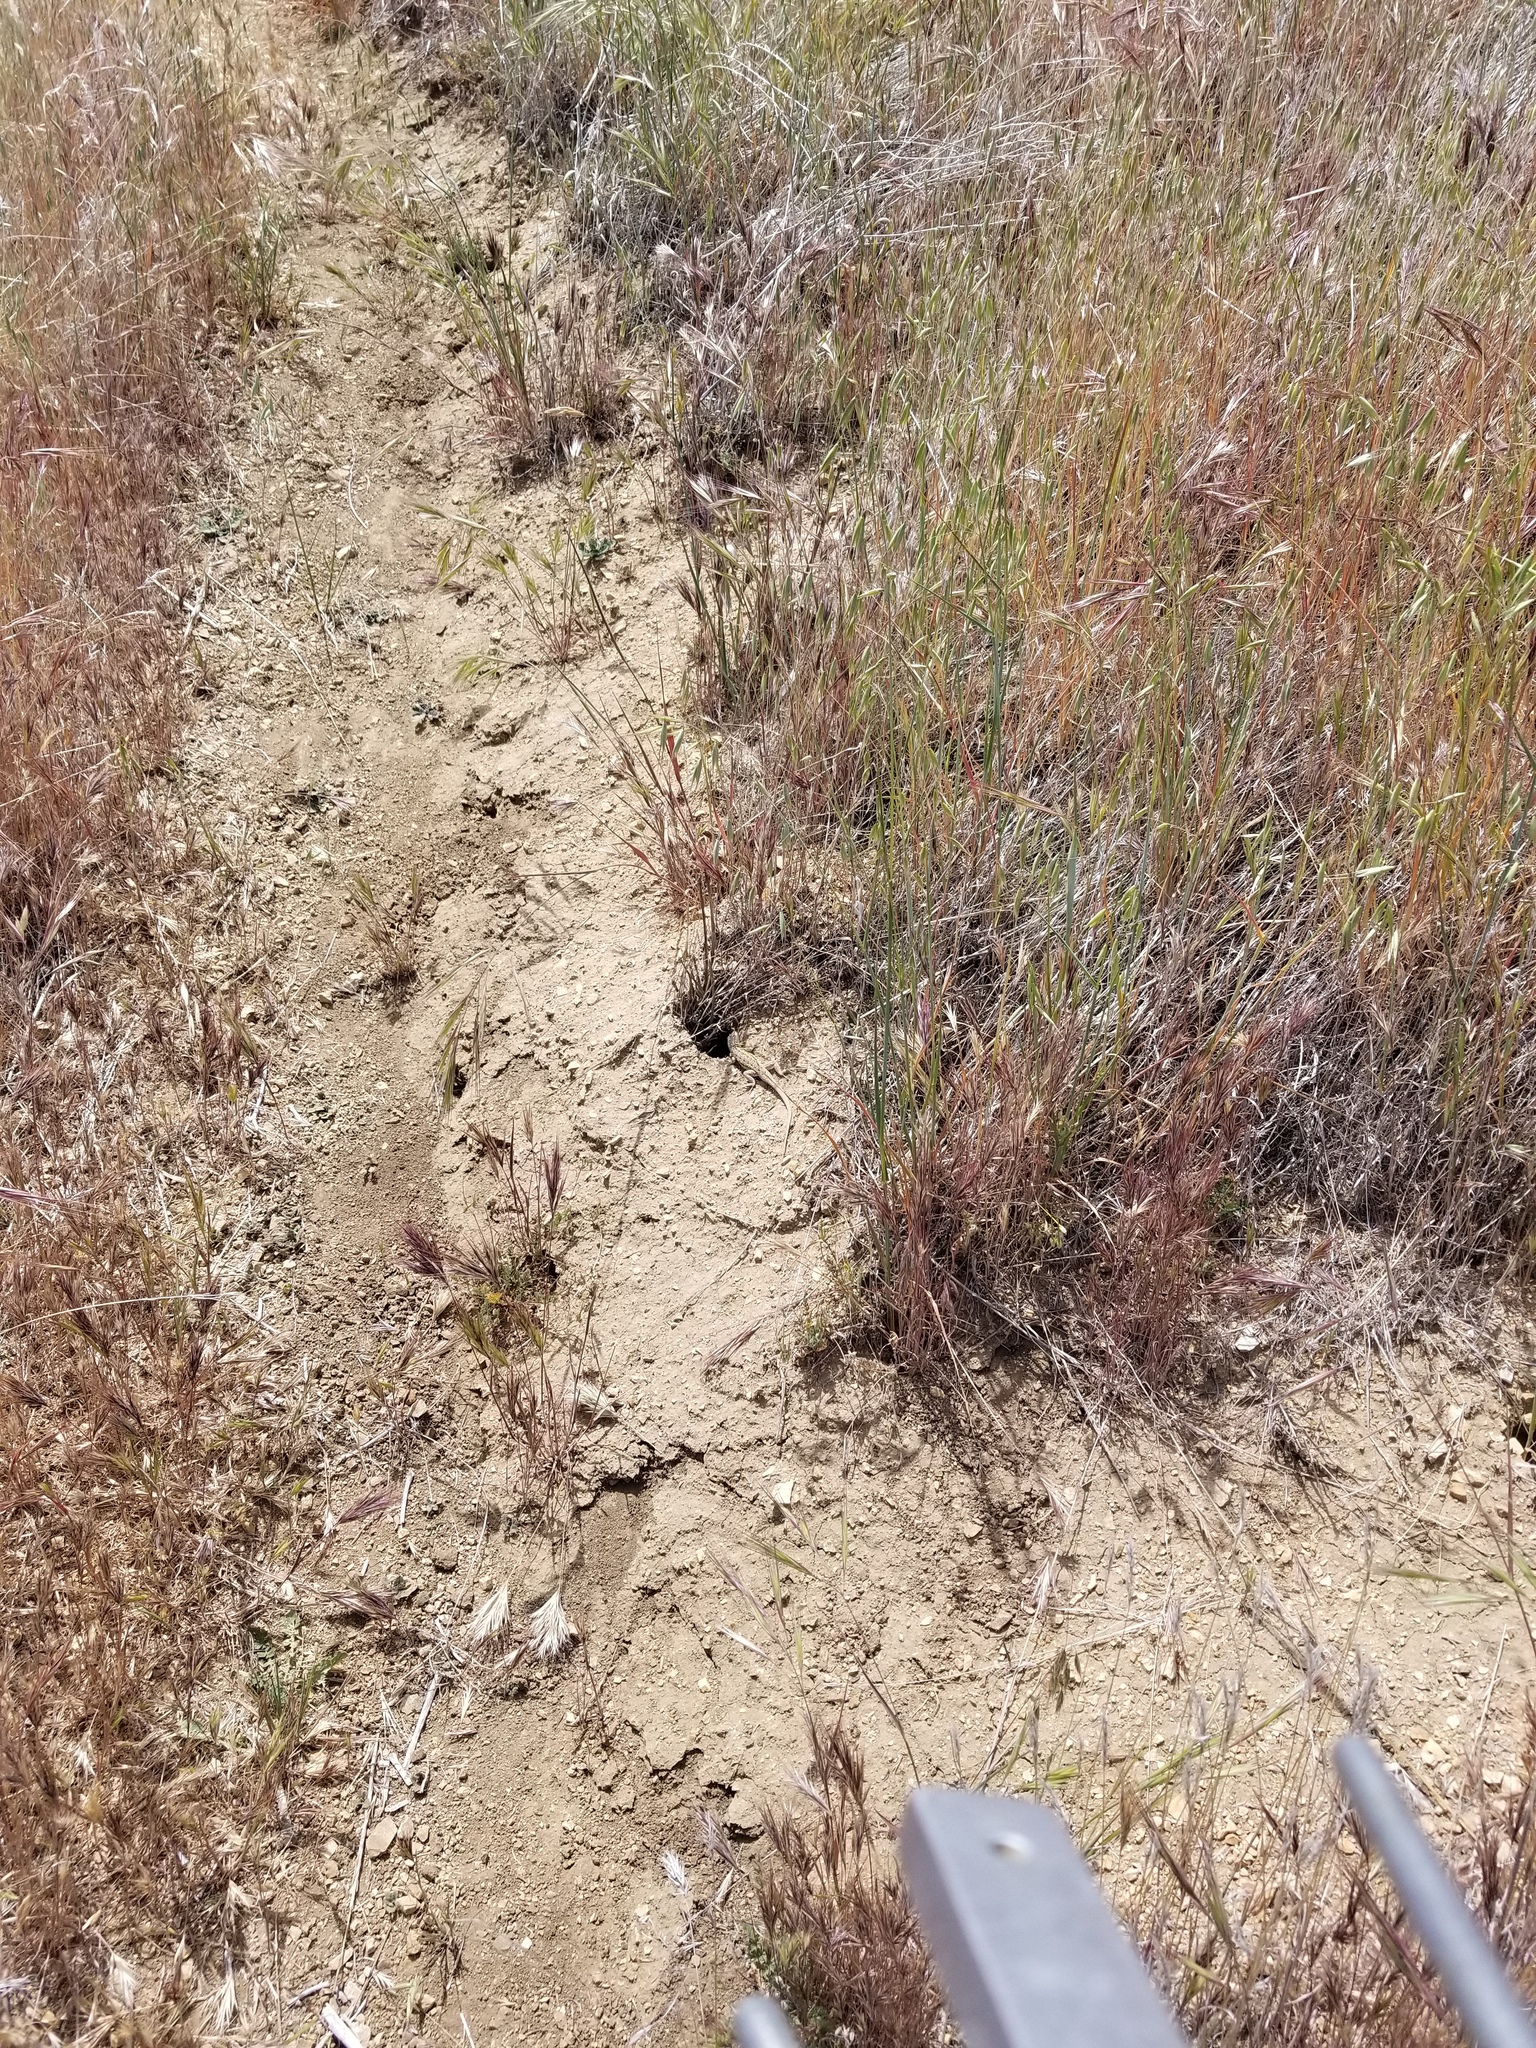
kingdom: Animalia
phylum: Chordata
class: Squamata
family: Phrynosomatidae
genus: Uta
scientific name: Uta stansburiana
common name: Side-blotched lizard
